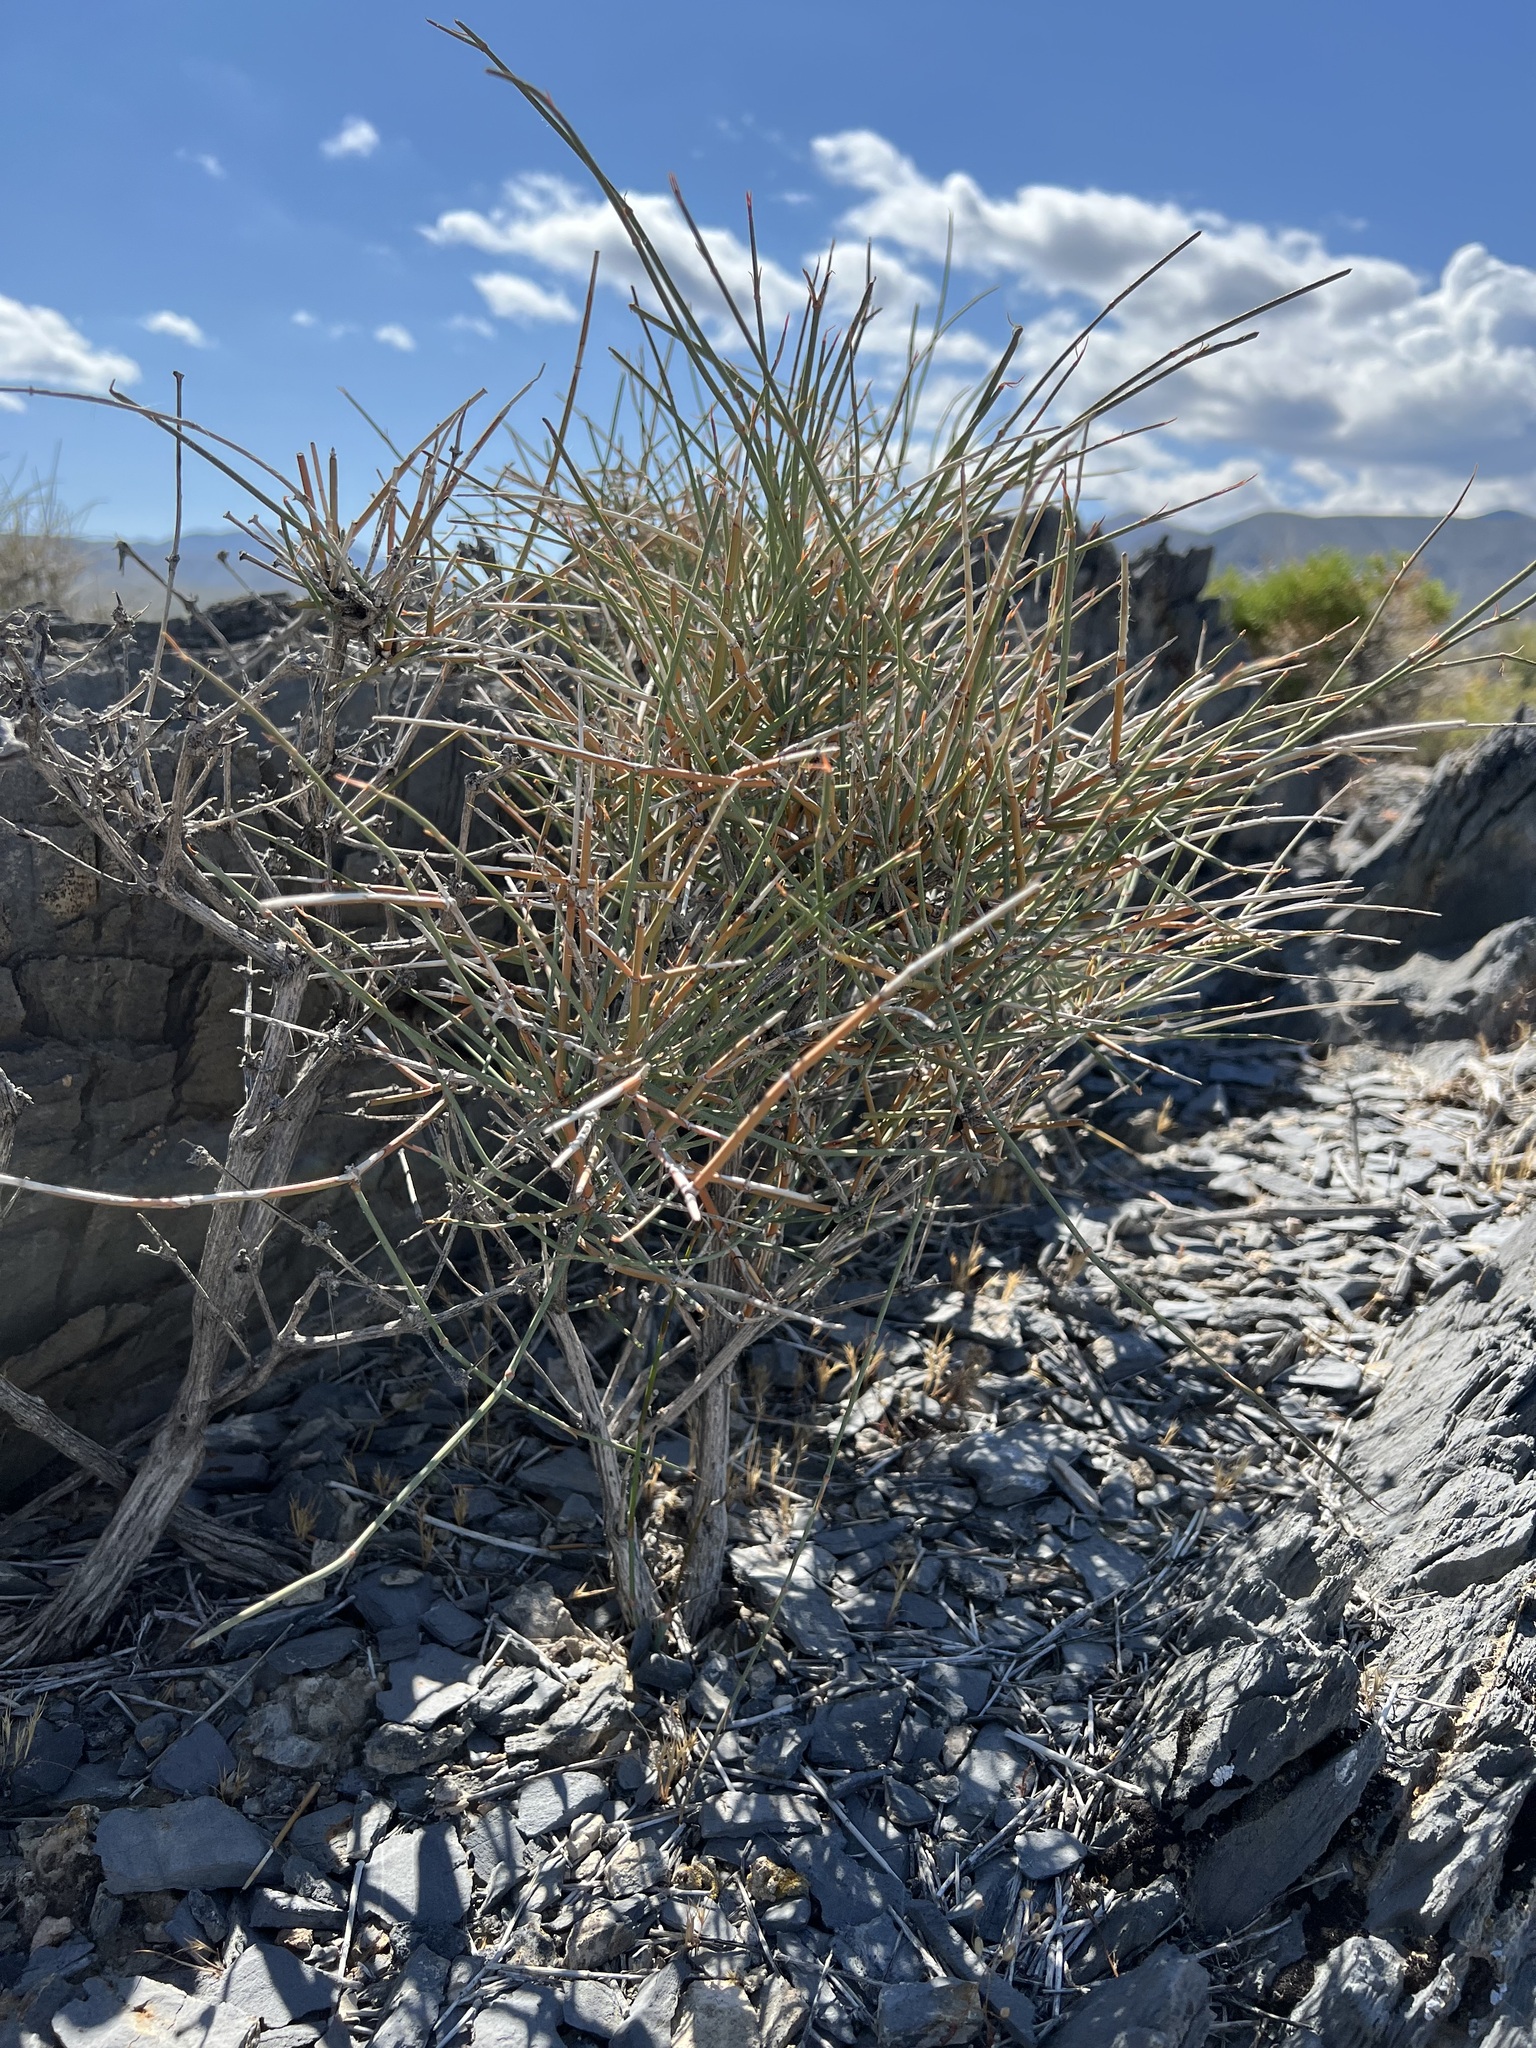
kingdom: Plantae
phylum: Tracheophyta
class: Gnetopsida
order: Ephedrales
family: Ephedraceae
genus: Ephedra
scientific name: Ephedra nevadensis
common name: Gray ephedra
